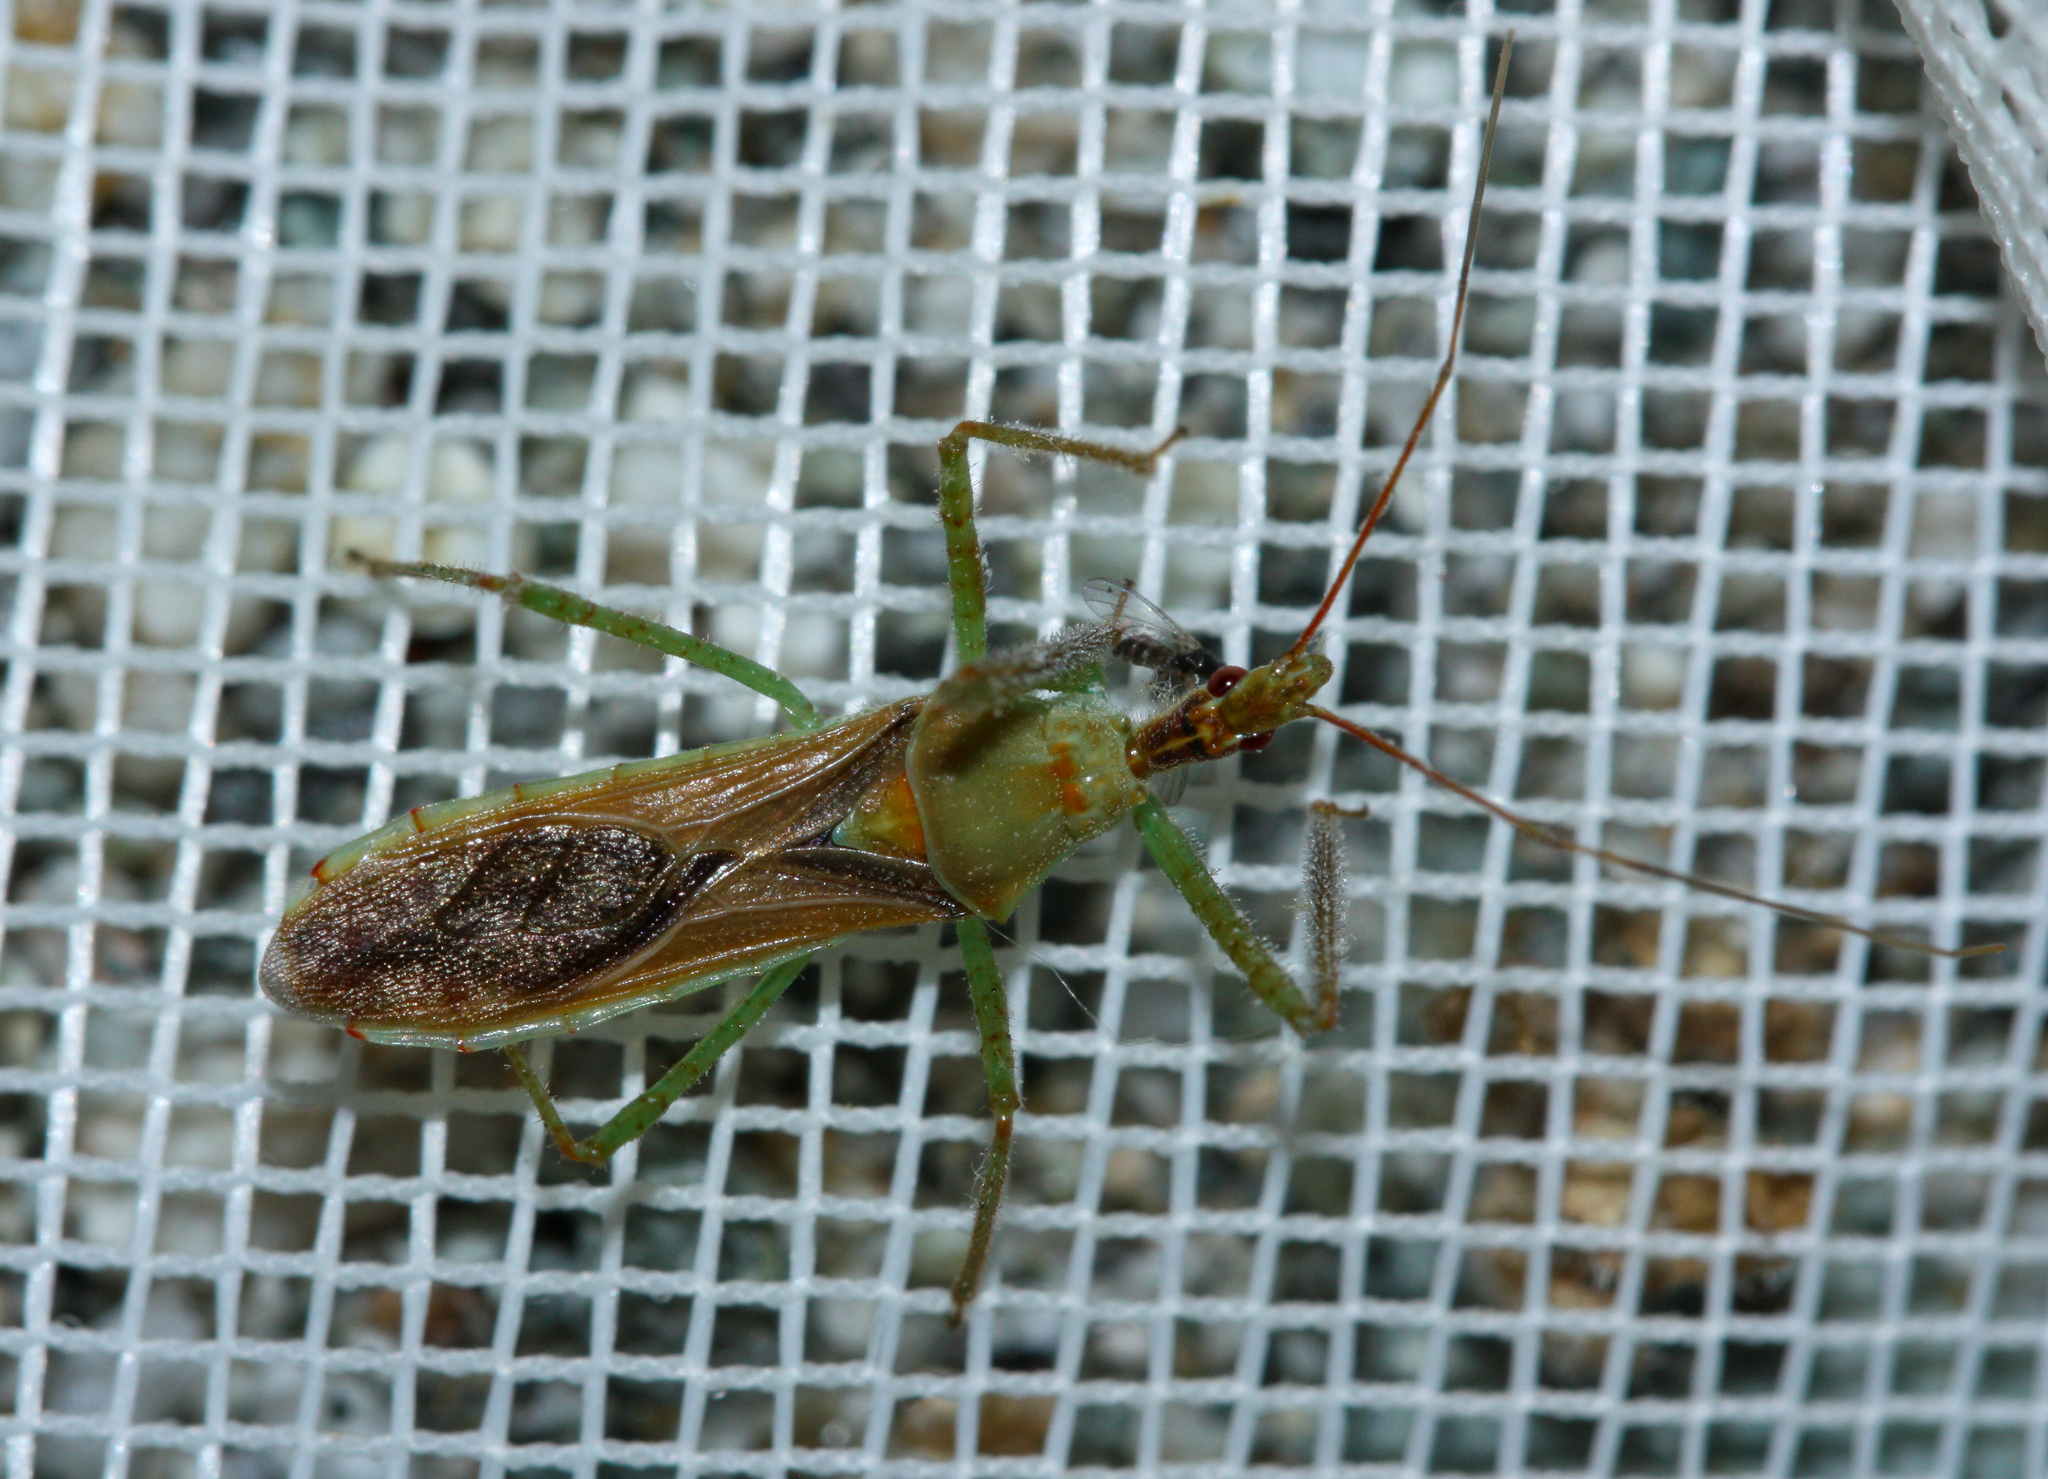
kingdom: Animalia
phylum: Arthropoda
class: Insecta
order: Hemiptera
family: Reduviidae
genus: Zelus
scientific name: Zelus renardii
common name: Assassin bug
